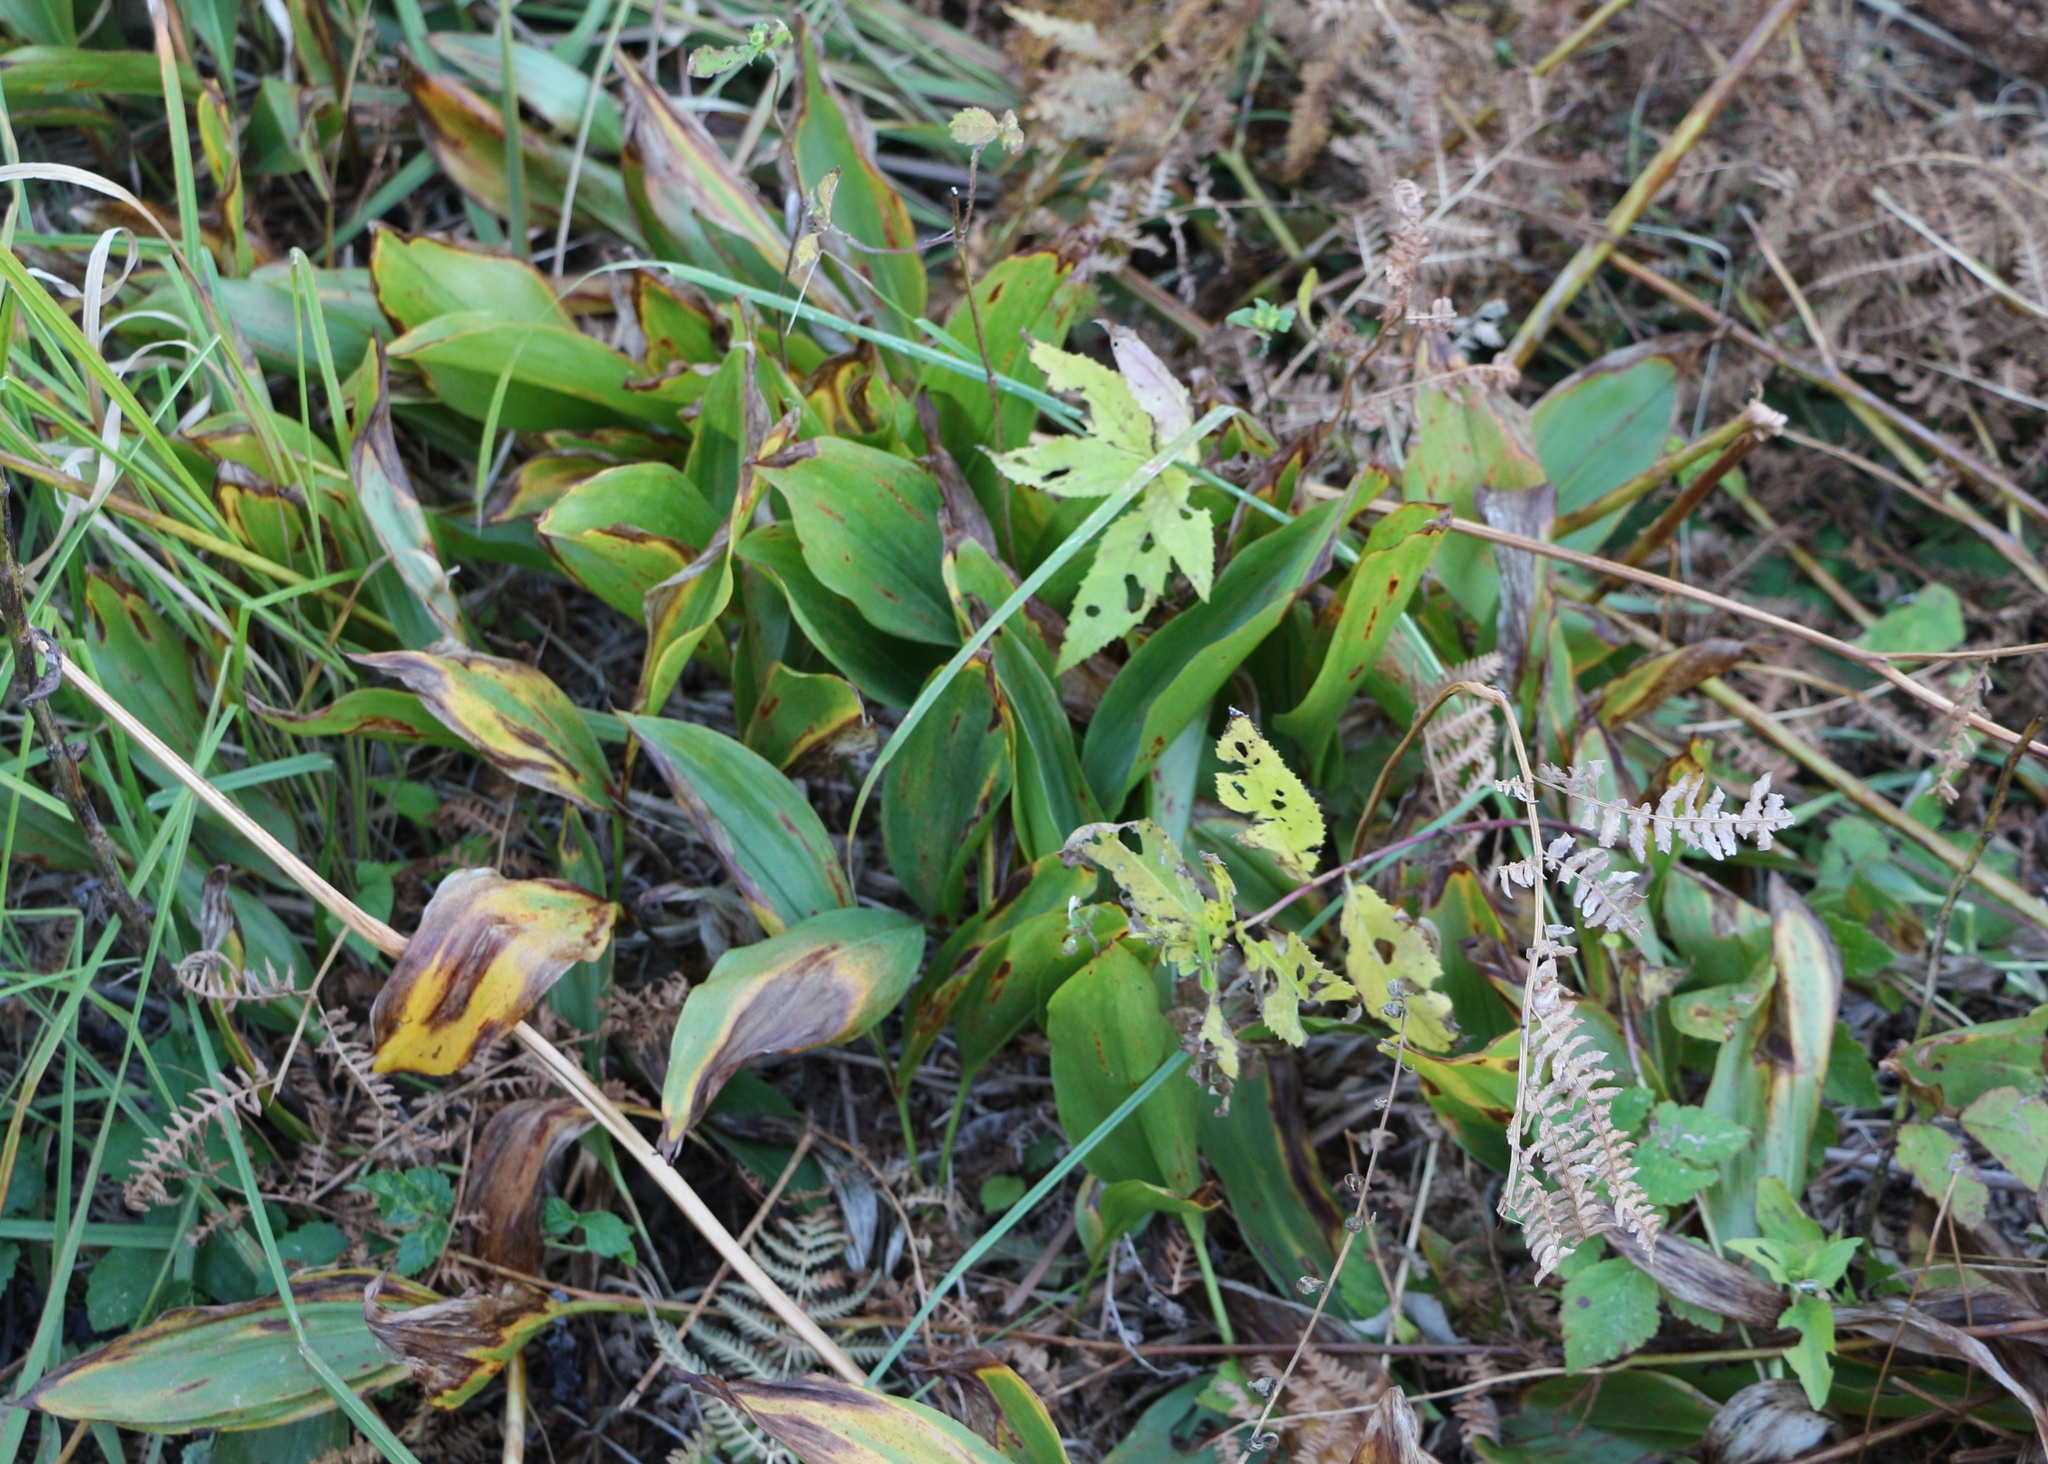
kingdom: Plantae
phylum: Tracheophyta
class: Liliopsida
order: Asparagales
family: Asparagaceae
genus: Convallaria
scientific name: Convallaria majalis
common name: Lily-of-the-valley
